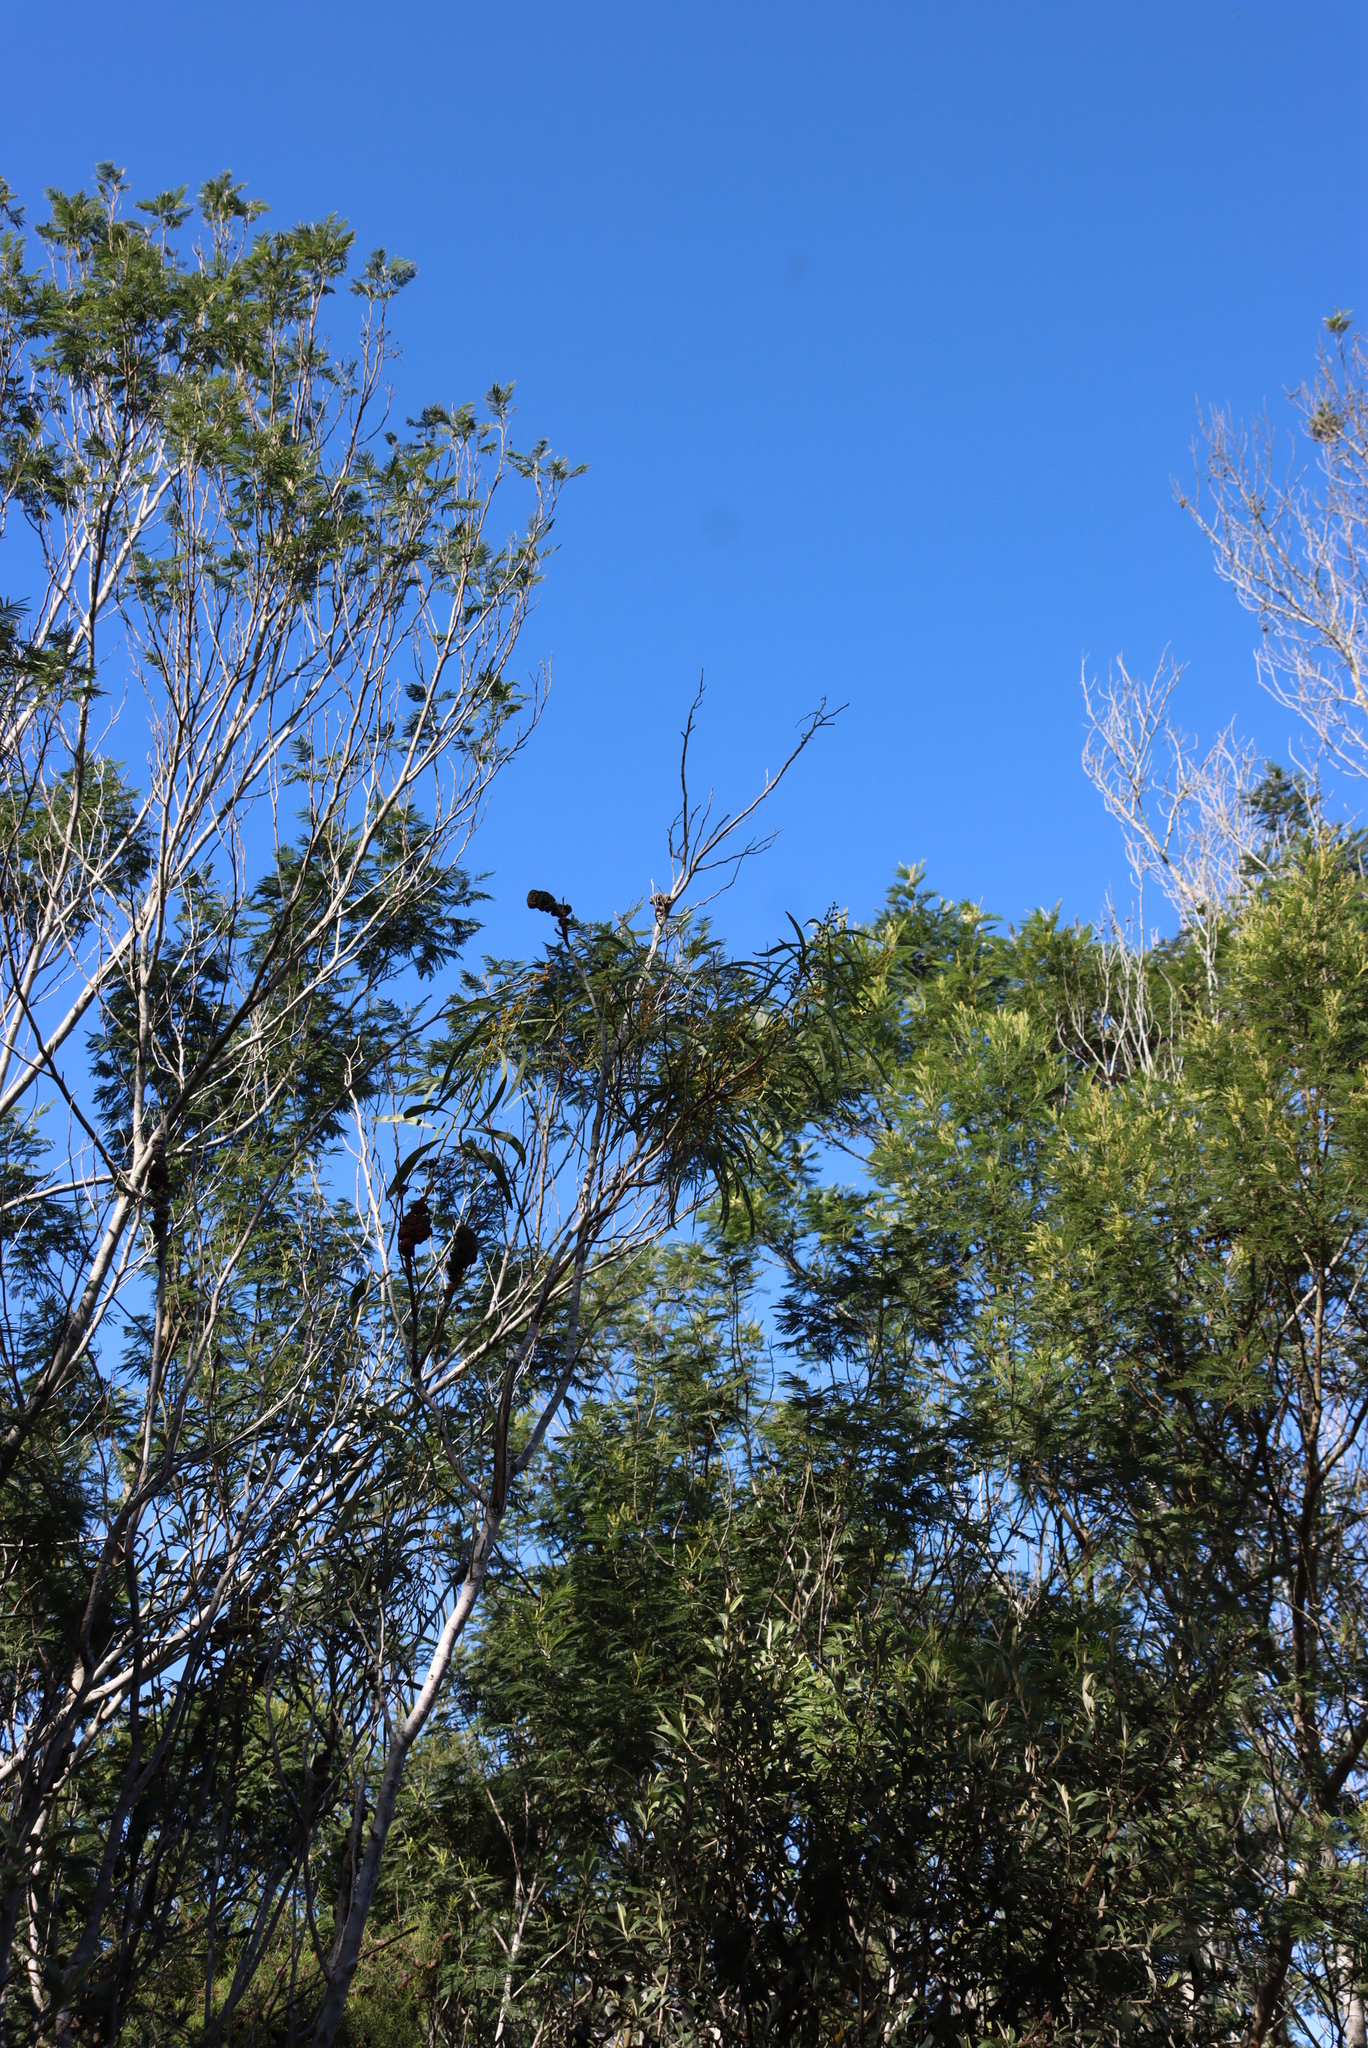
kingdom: Fungi
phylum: Basidiomycota
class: Pucciniomycetes
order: Pucciniales
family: Uromycladiaceae
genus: Uromycladium
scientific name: Uromycladium morrisii
